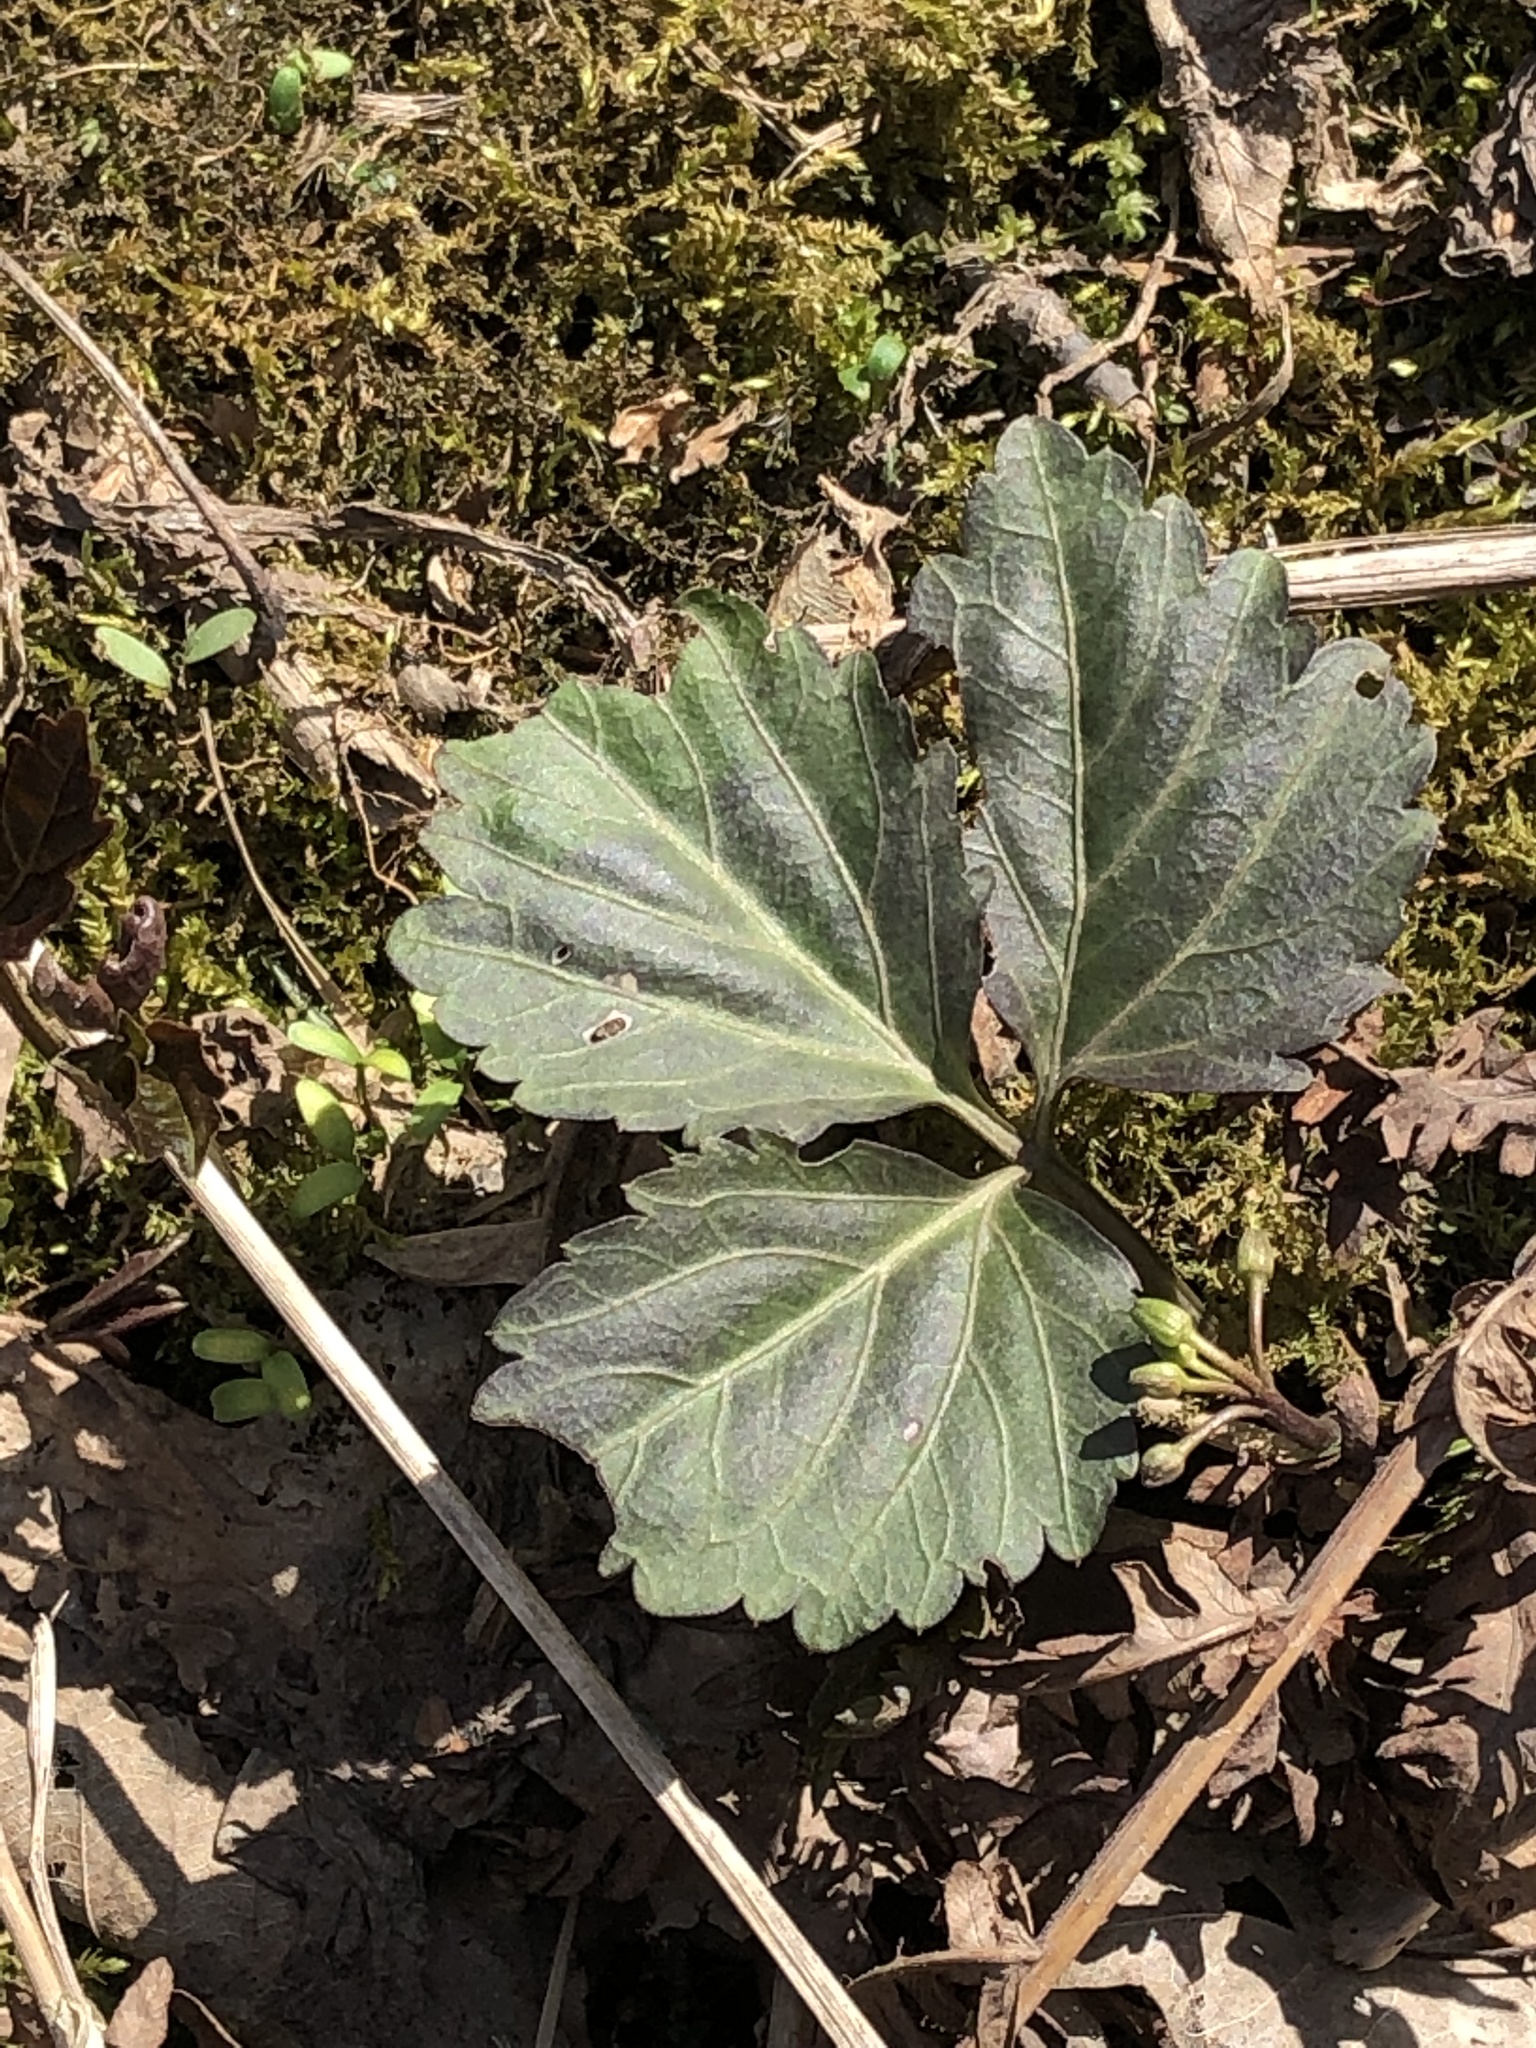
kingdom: Plantae
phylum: Tracheophyta
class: Magnoliopsida
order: Brassicales
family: Brassicaceae
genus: Cardamine
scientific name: Cardamine diphylla
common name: Broad-leaved toothwort
